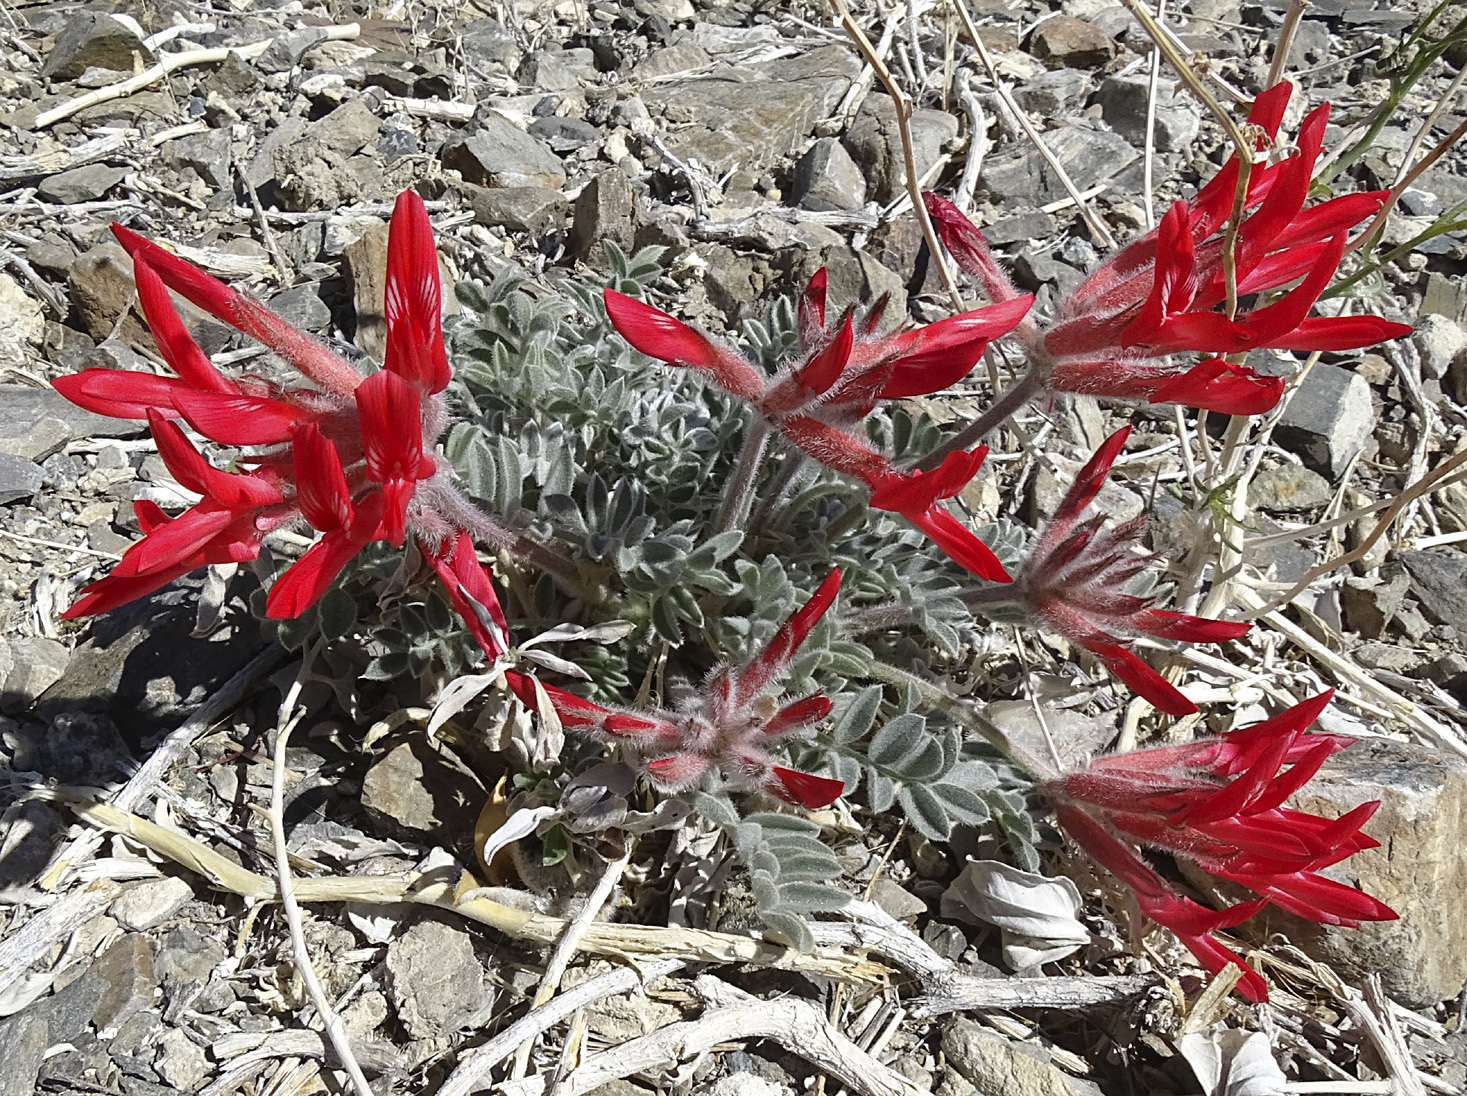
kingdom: Plantae
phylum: Tracheophyta
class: Magnoliopsida
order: Fabales
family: Fabaceae
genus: Astragalus
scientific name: Astragalus coccineus
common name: Scarlet milk-vetch
